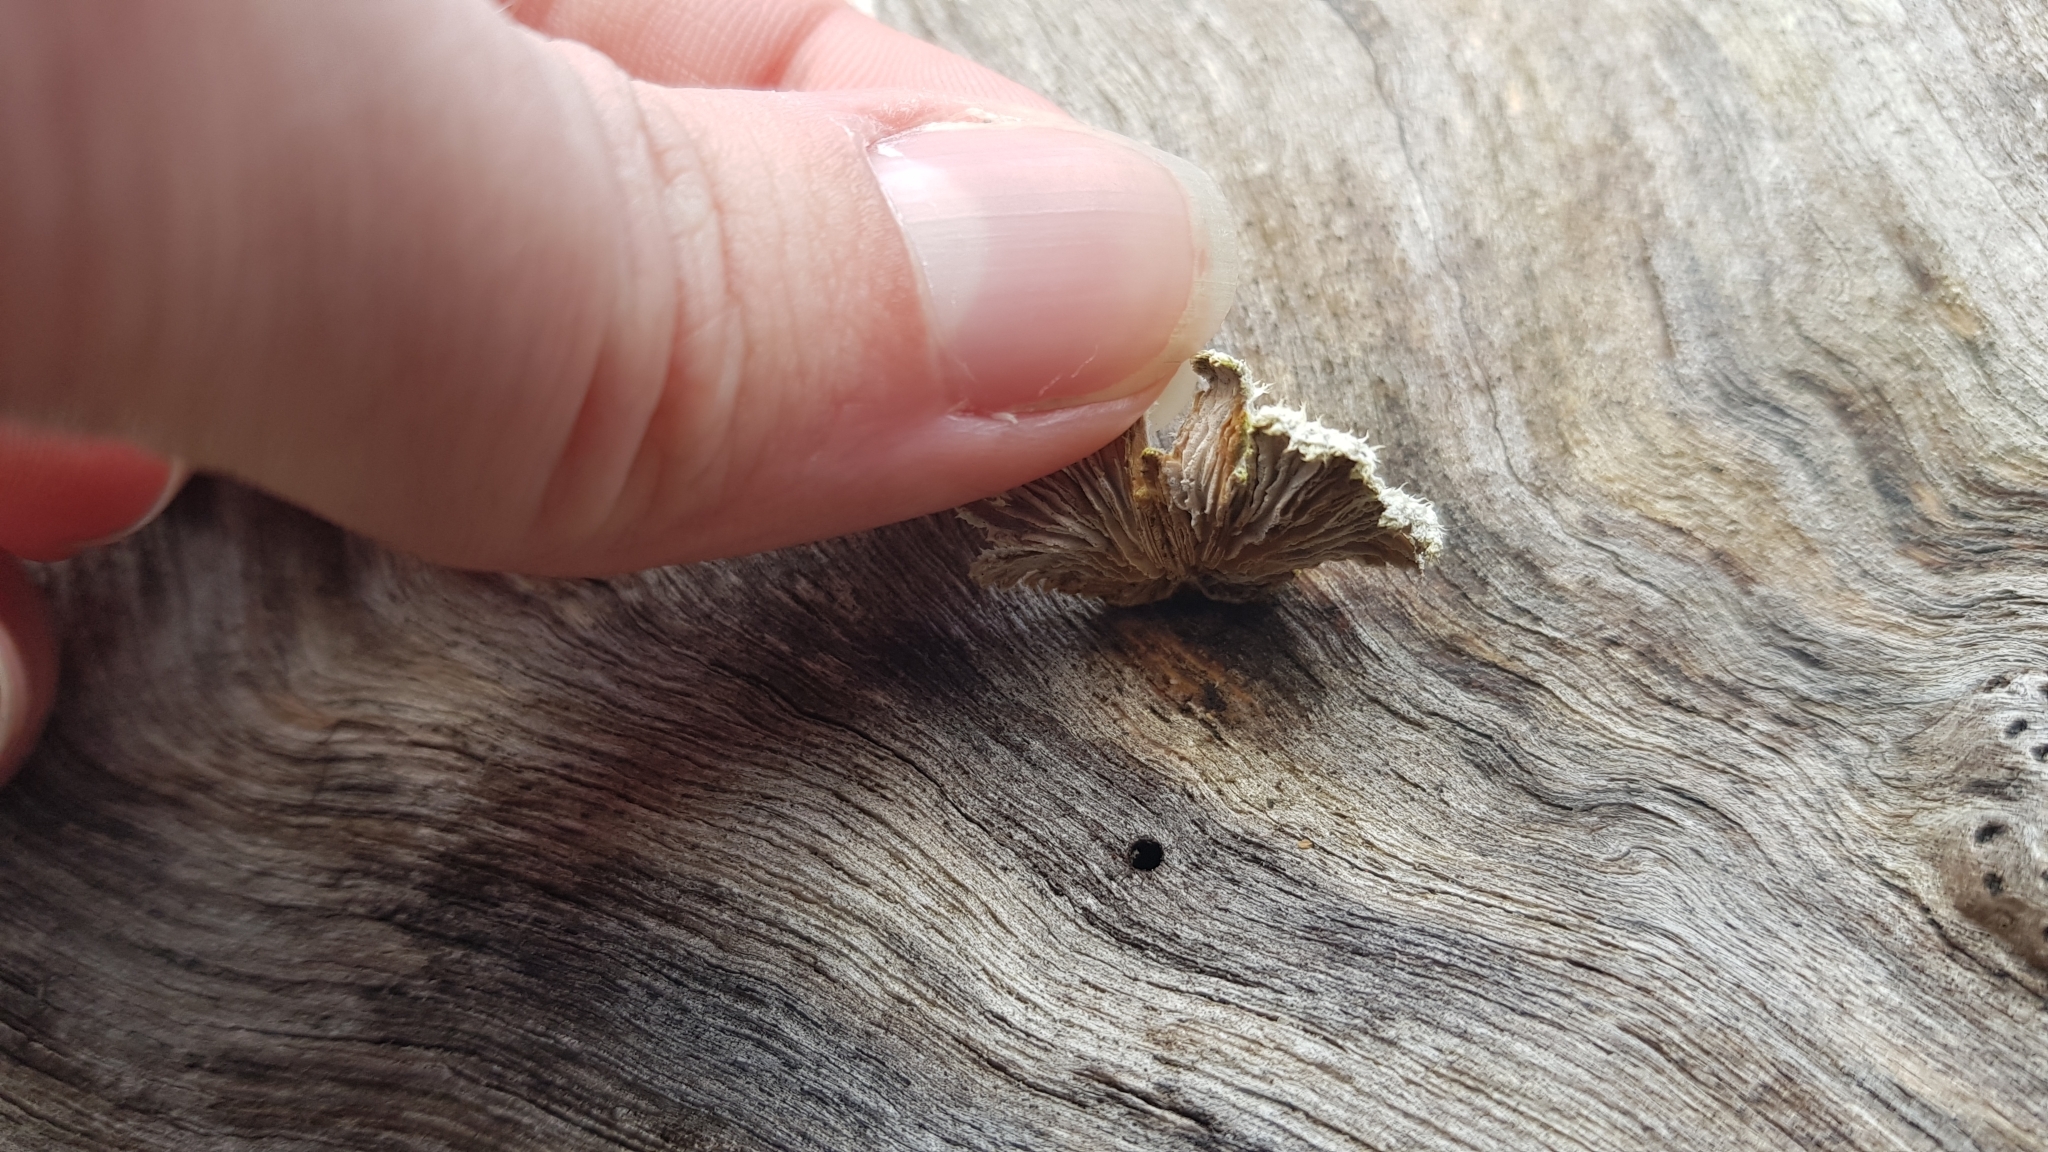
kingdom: Fungi
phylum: Basidiomycota
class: Agaricomycetes
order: Agaricales
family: Schizophyllaceae
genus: Schizophyllum
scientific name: Schizophyllum commune
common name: Common porecrust
